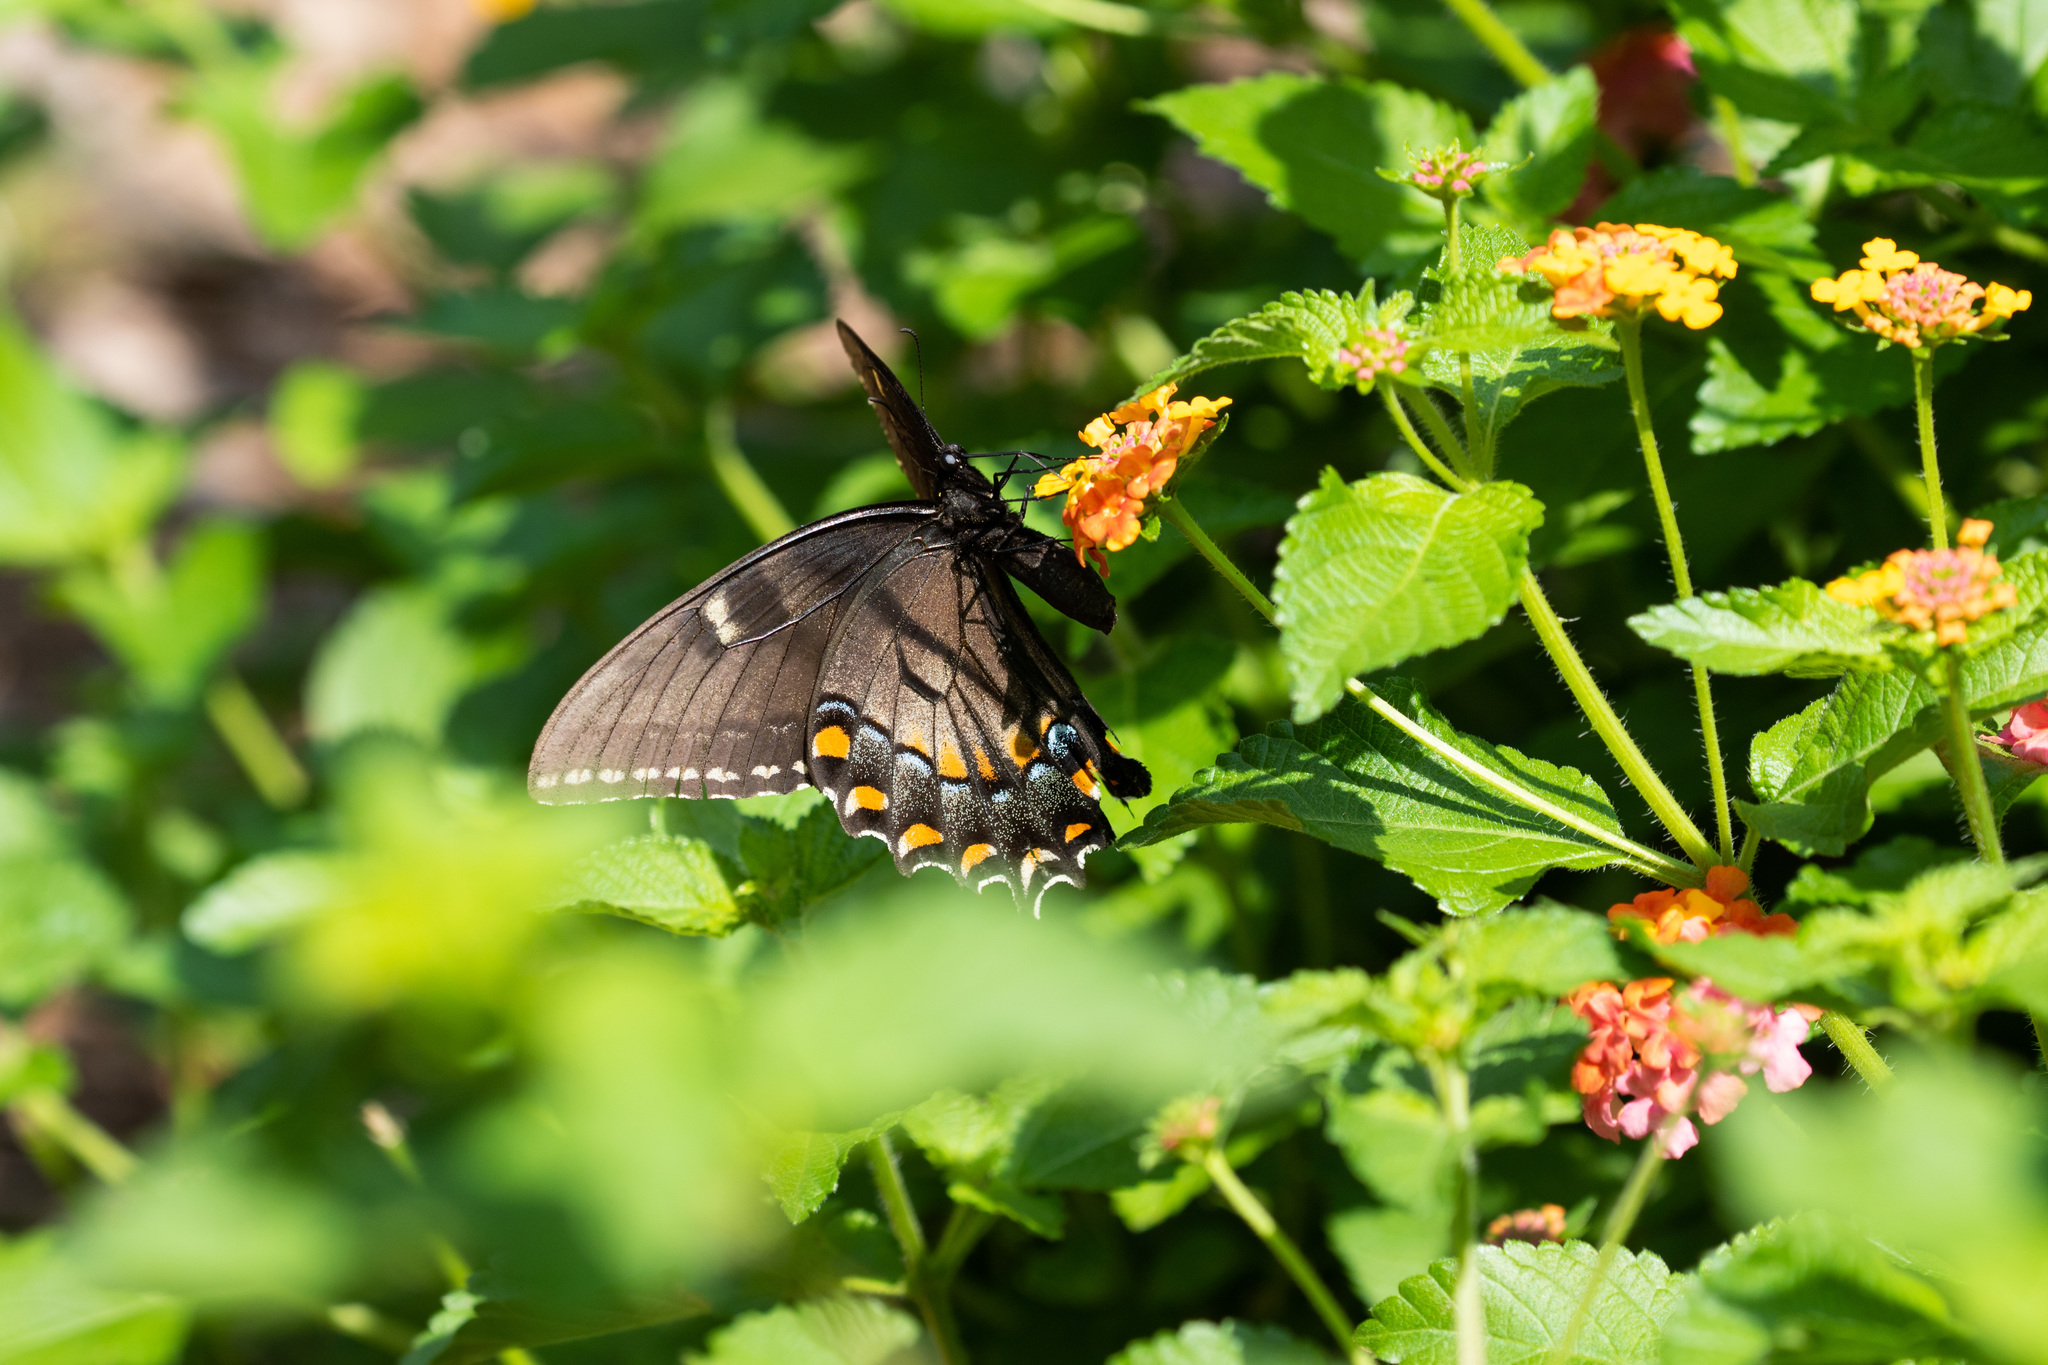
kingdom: Animalia
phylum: Arthropoda
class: Insecta
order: Lepidoptera
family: Papilionidae
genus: Papilio
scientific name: Papilio glaucus
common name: Tiger swallowtail
